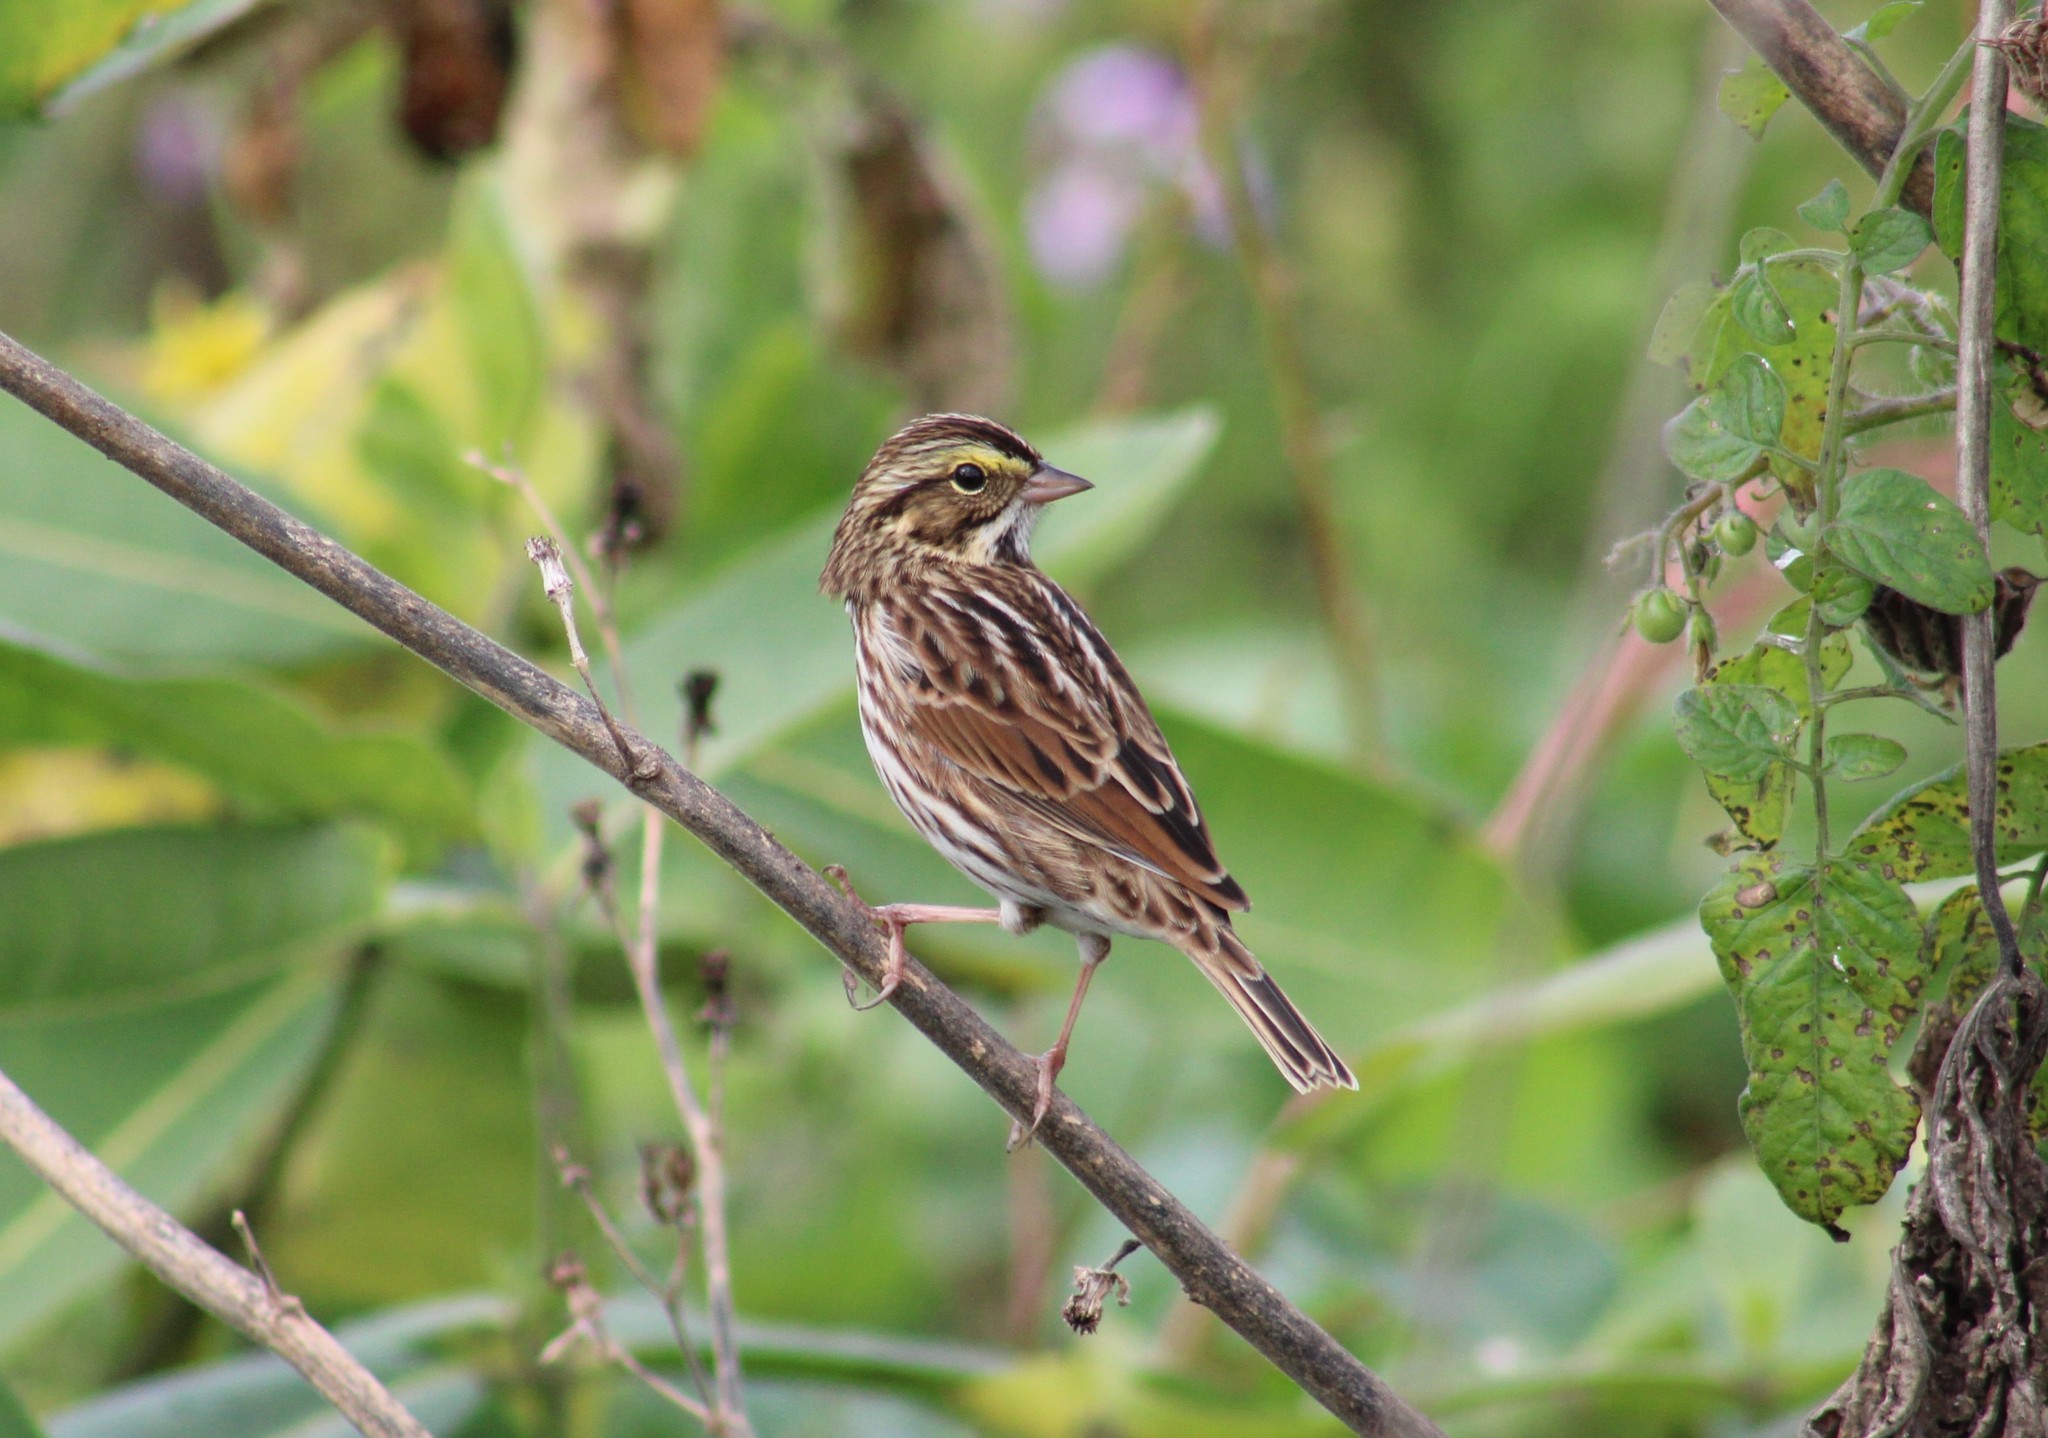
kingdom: Animalia
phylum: Chordata
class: Aves
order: Passeriformes
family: Passerellidae
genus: Passerculus
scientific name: Passerculus sandwichensis
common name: Savannah sparrow
